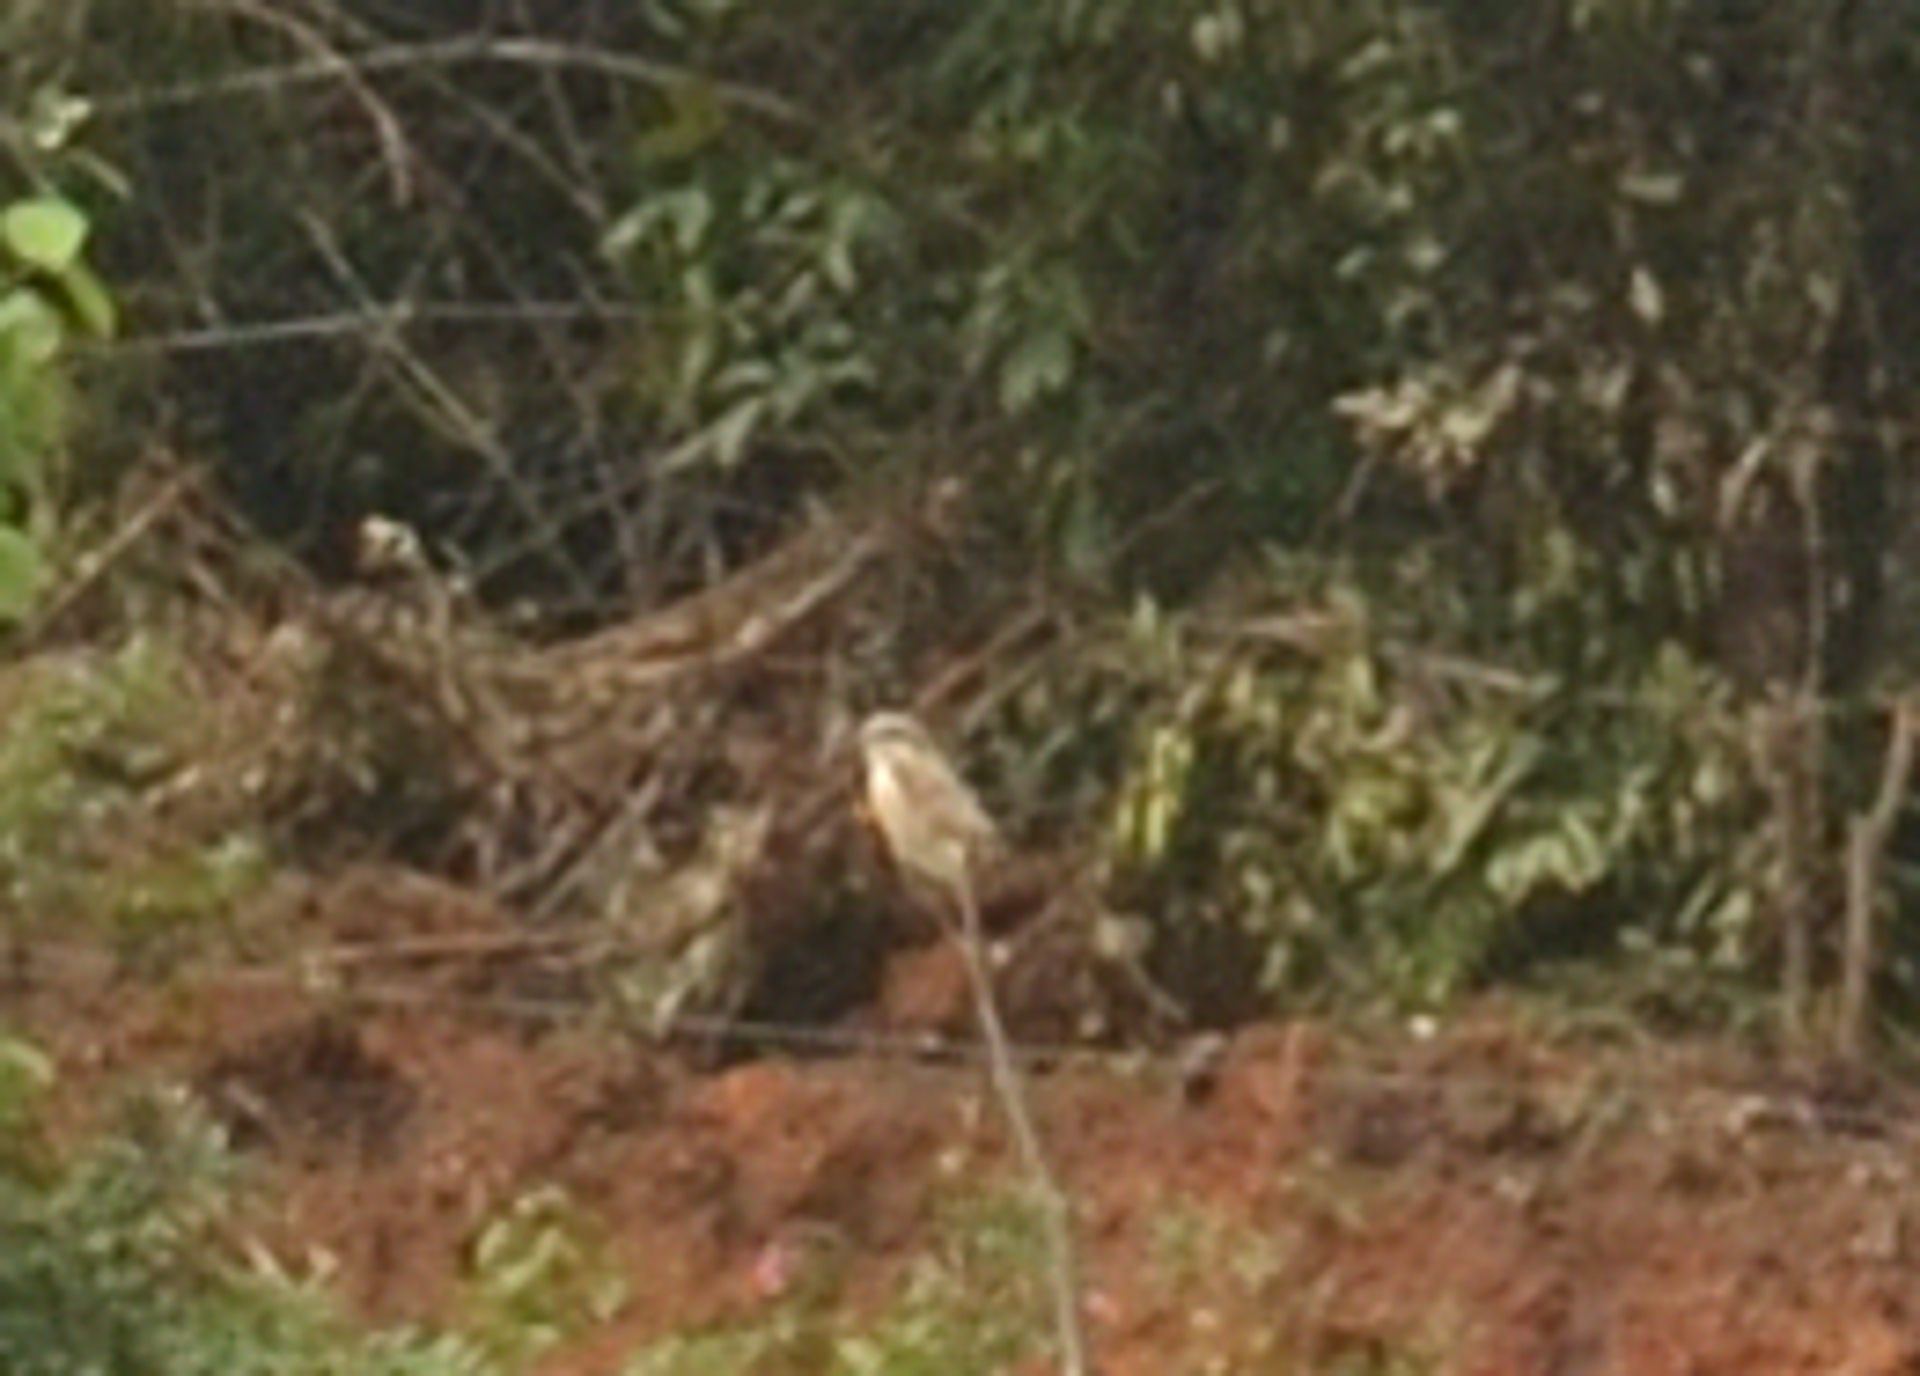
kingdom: Animalia
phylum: Chordata
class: Aves
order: Passeriformes
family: Laniidae
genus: Lanius
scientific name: Lanius cristatus
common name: Brown shrike
